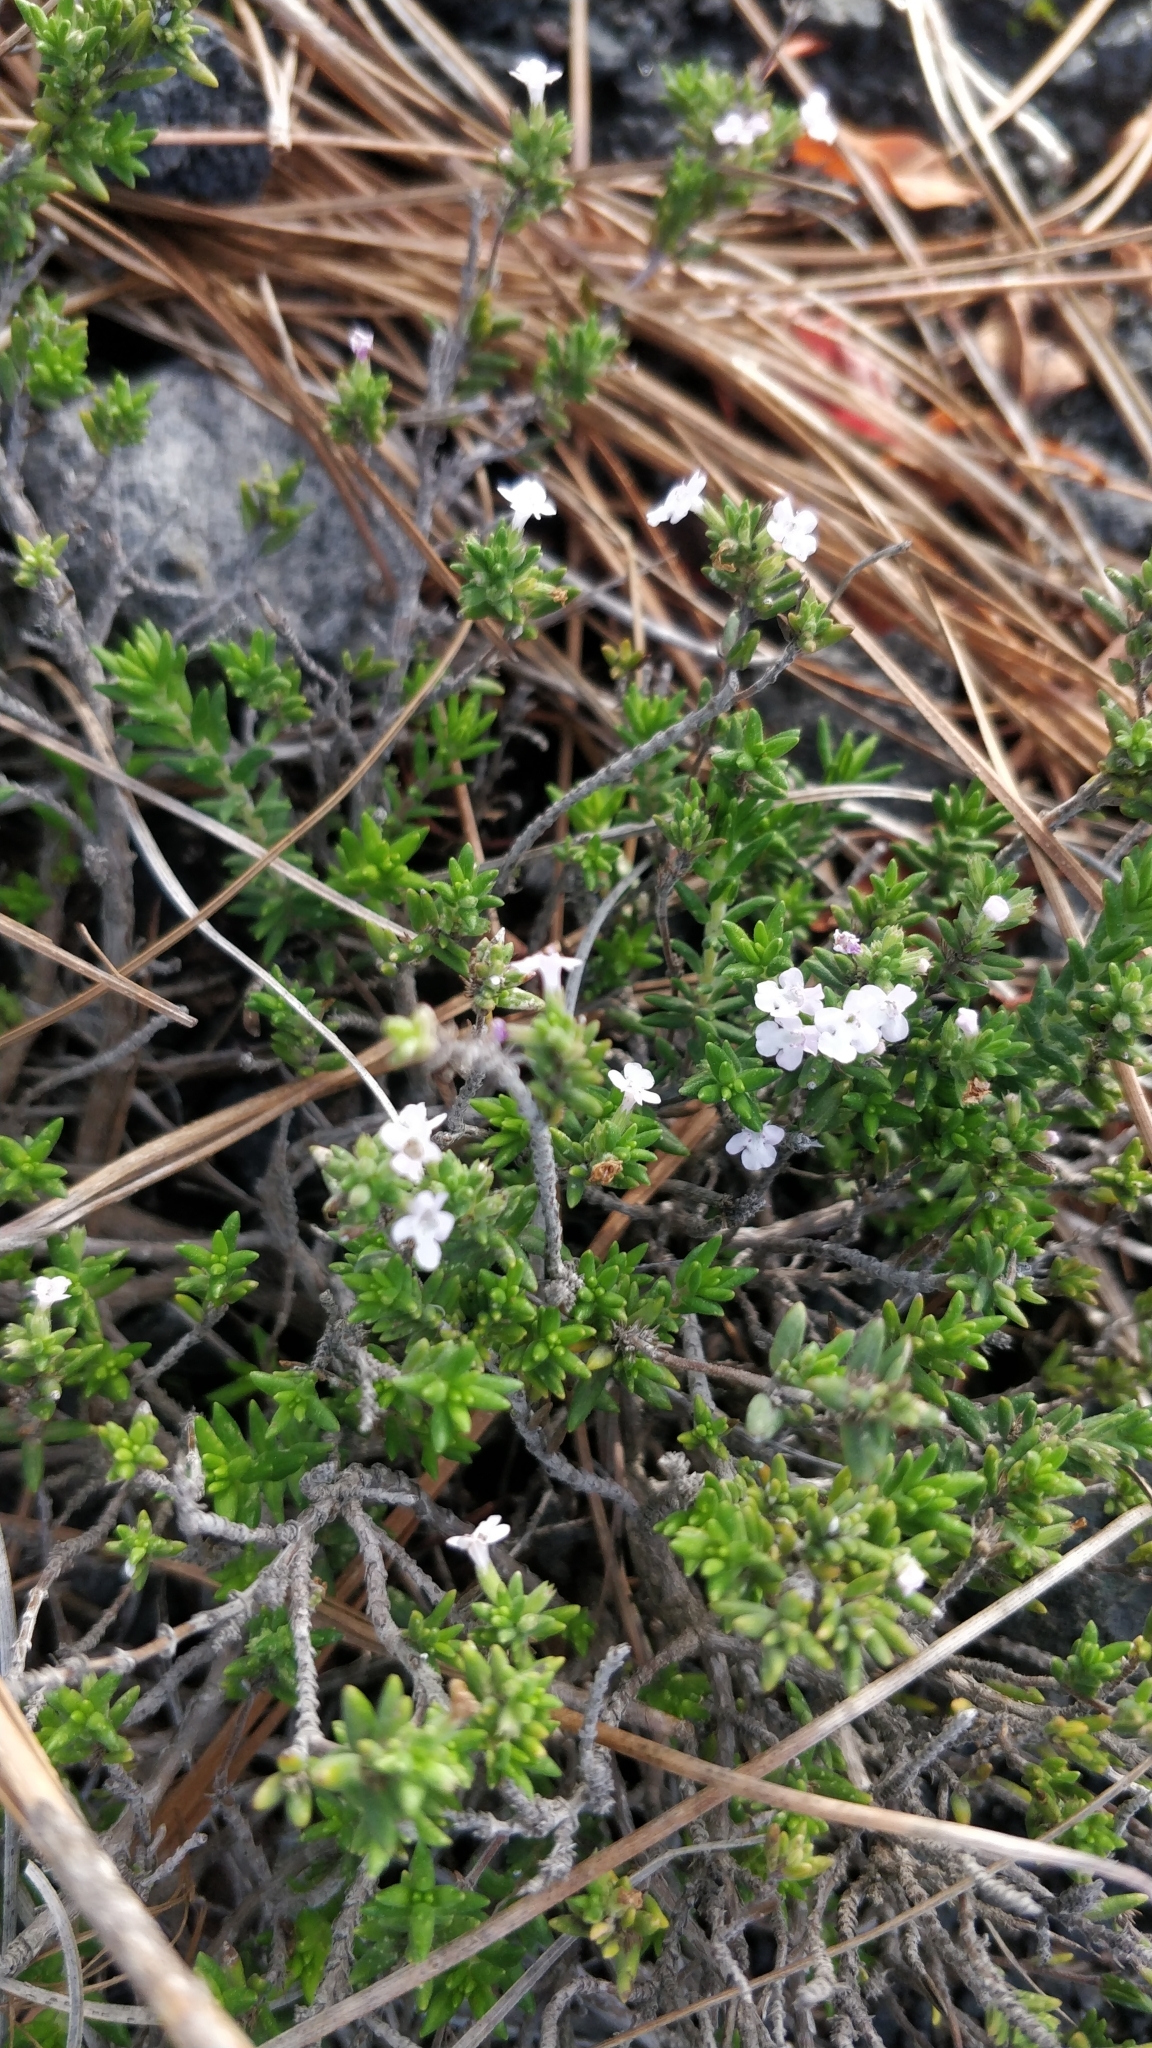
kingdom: Plantae
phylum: Tracheophyta
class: Magnoliopsida
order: Lamiales
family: Lamiaceae
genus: Micromeria
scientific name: Micromeria herpyllomorpha
